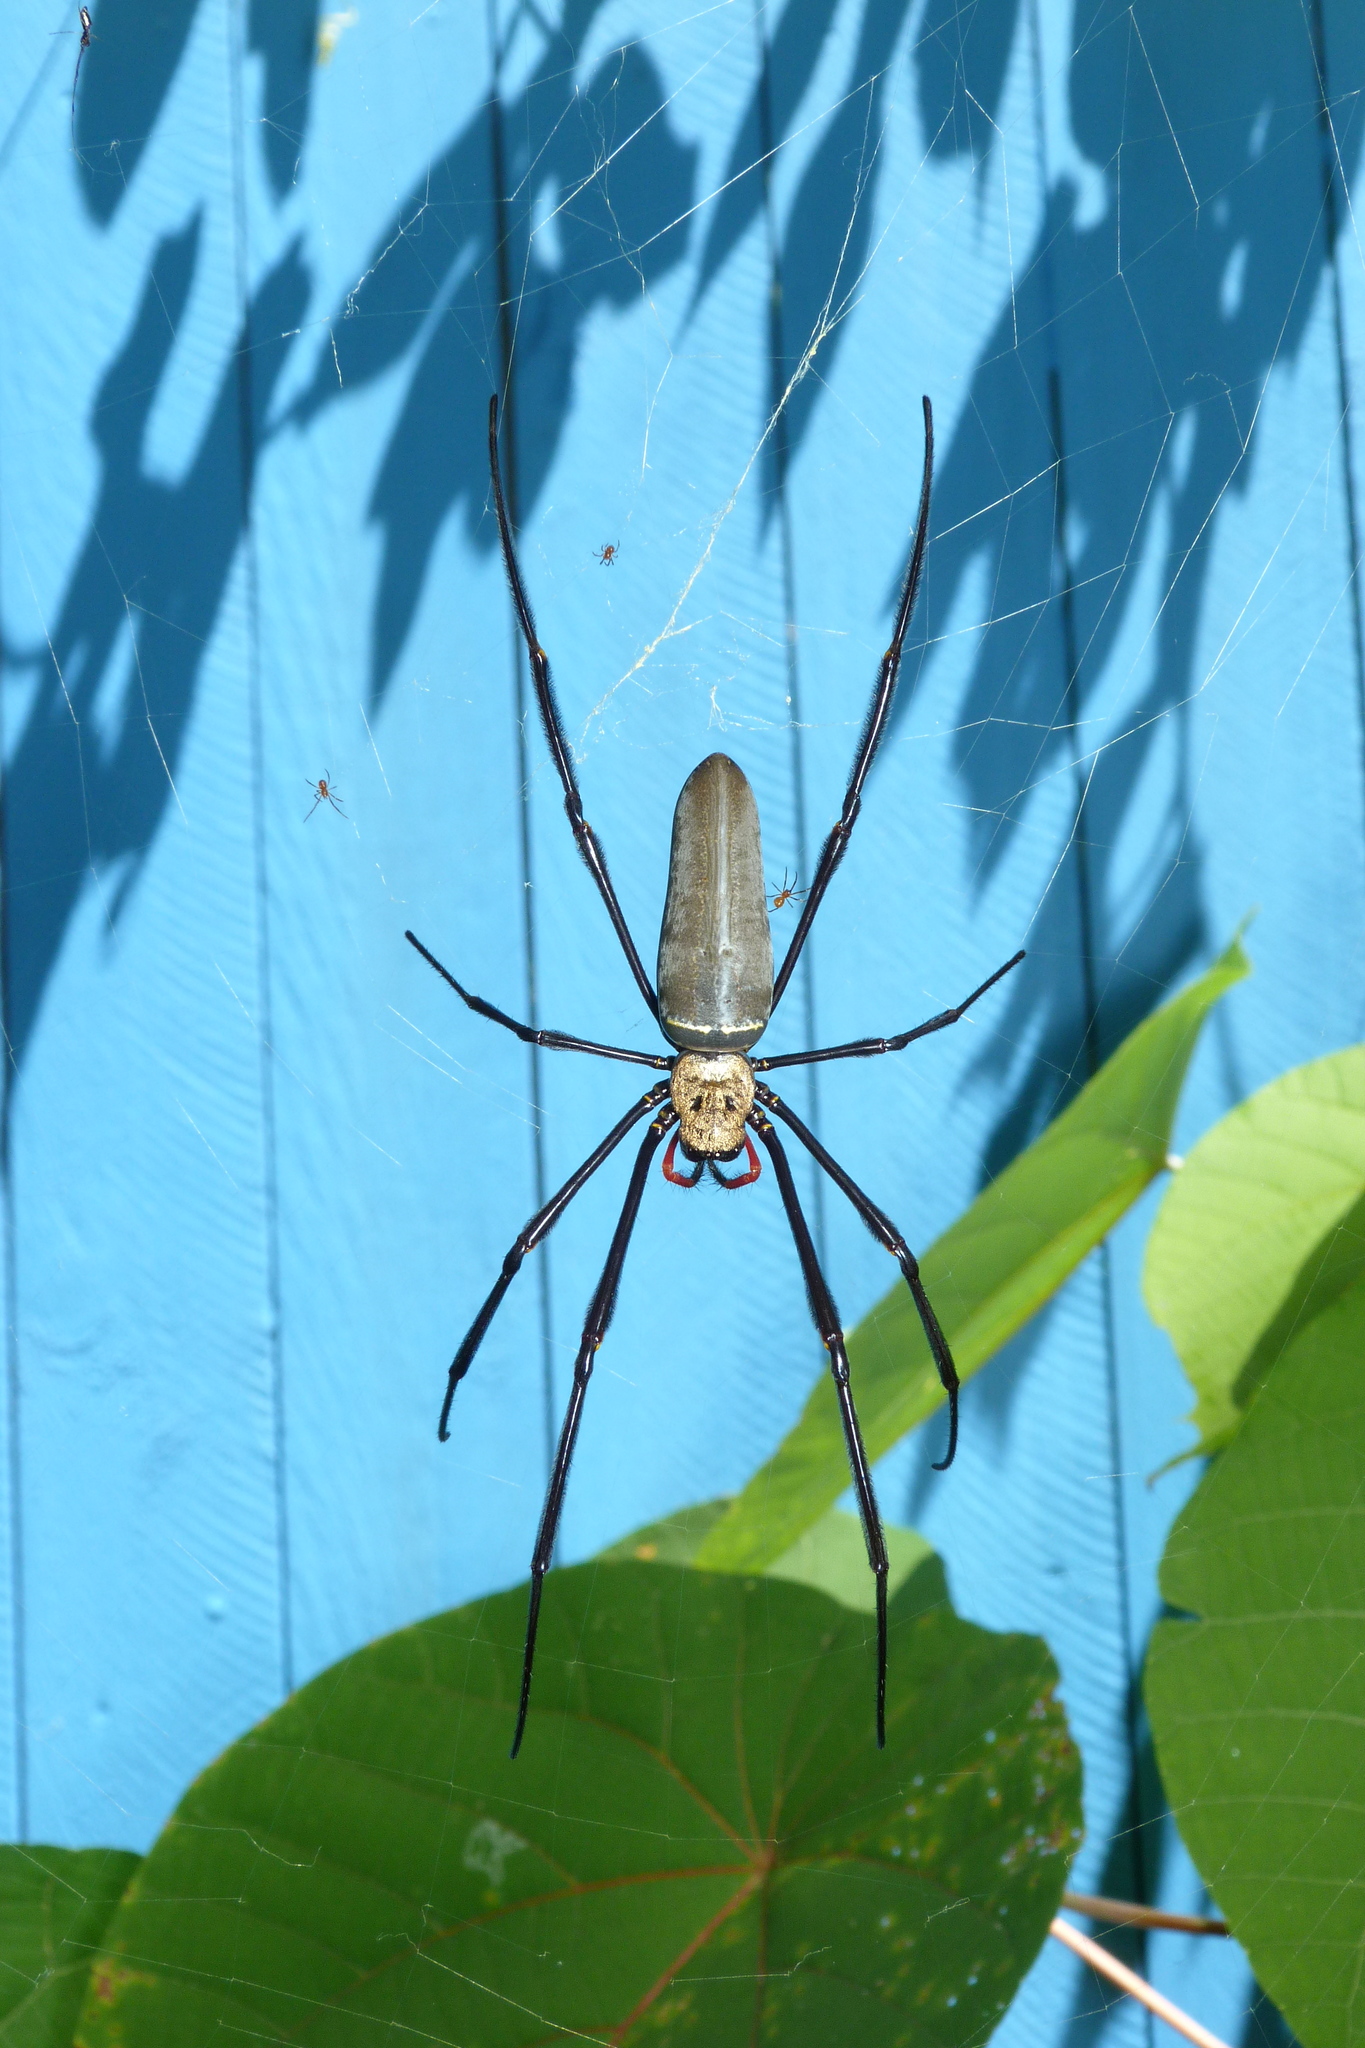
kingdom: Animalia
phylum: Arthropoda
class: Arachnida
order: Araneae
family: Araneidae
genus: Nephila
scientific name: Nephila pilipes
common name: Giant golden orb weaver
